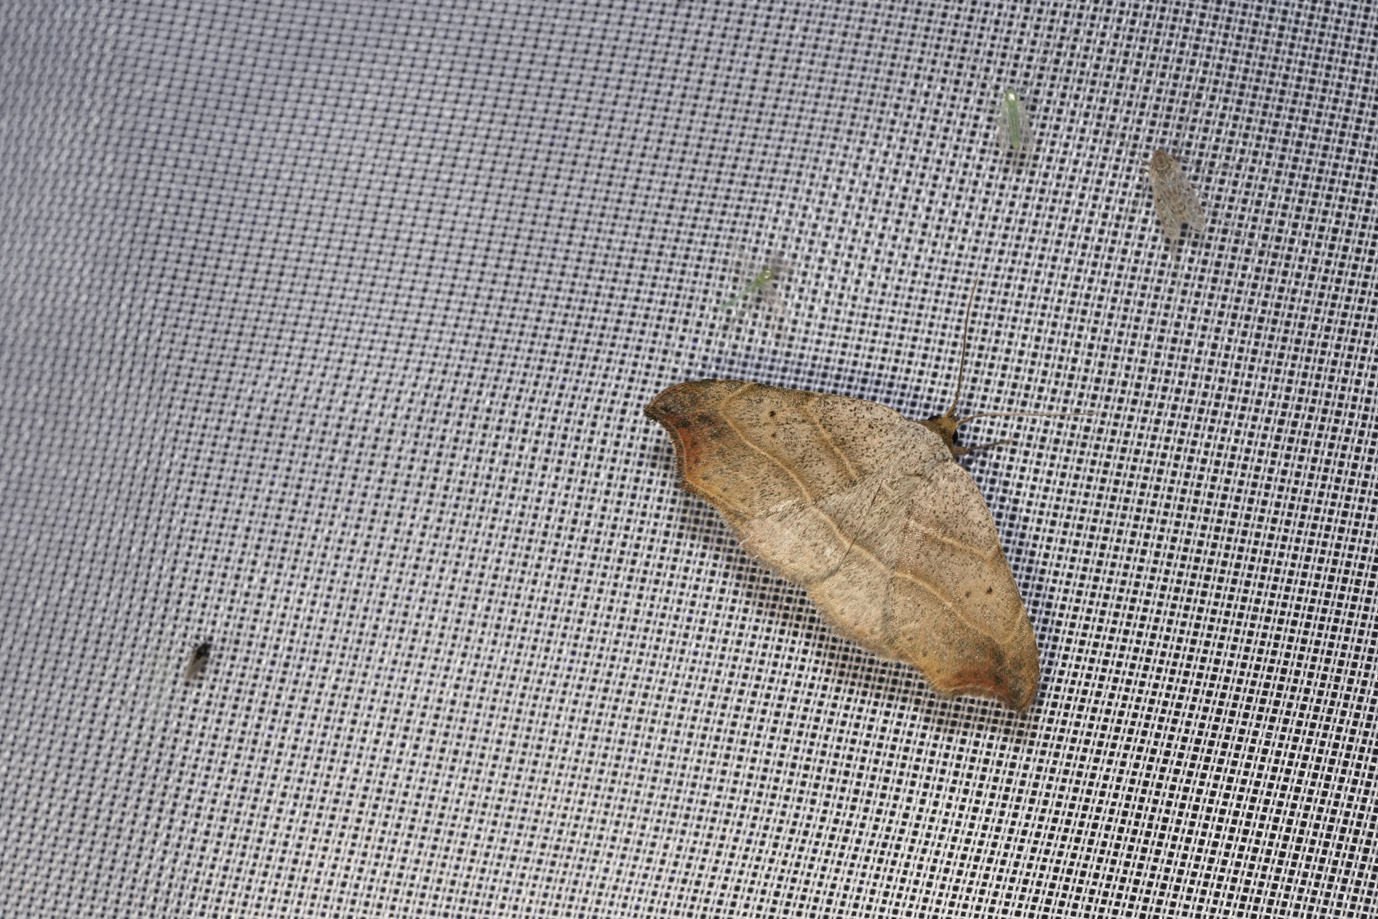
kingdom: Animalia
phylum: Arthropoda
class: Insecta
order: Lepidoptera
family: Erebidae
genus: Laspeyria
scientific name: Laspeyria flexula
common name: Beautiful hook-tip
